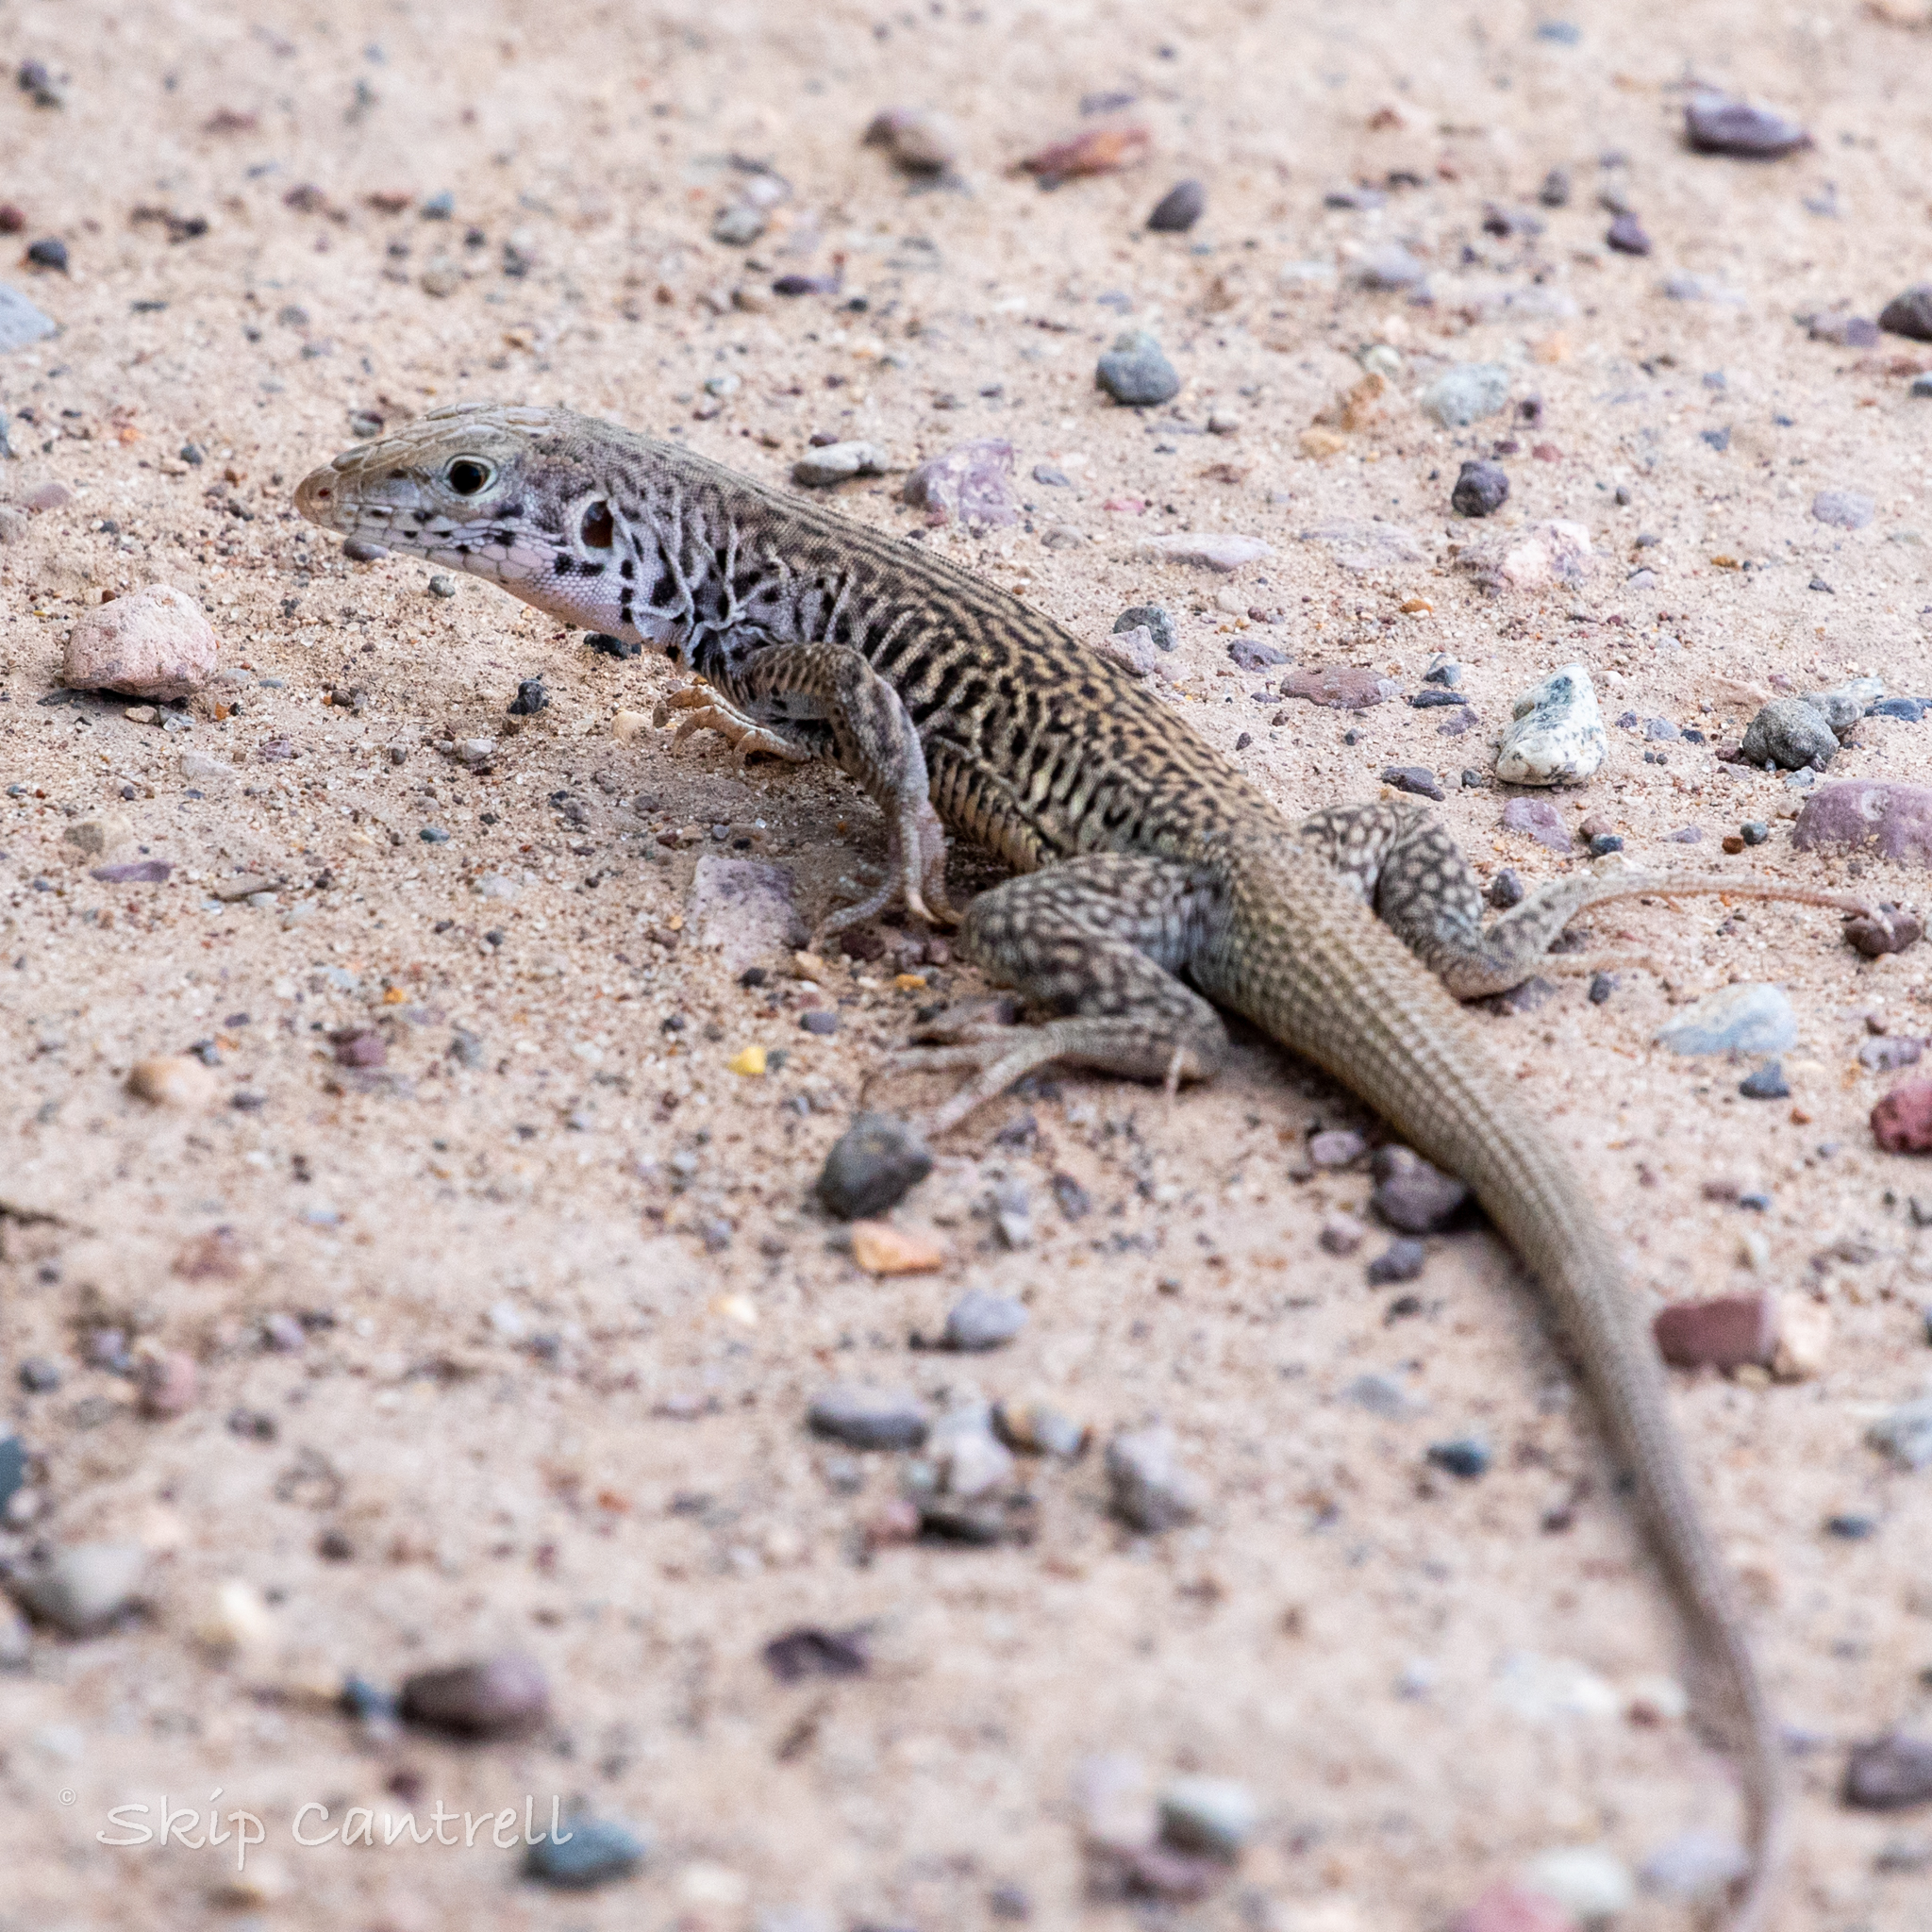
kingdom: Animalia
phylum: Chordata
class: Squamata
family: Teiidae
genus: Aspidoscelis
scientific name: Aspidoscelis marmoratus
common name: Eastern marbled whiptail [reticuloriens]
